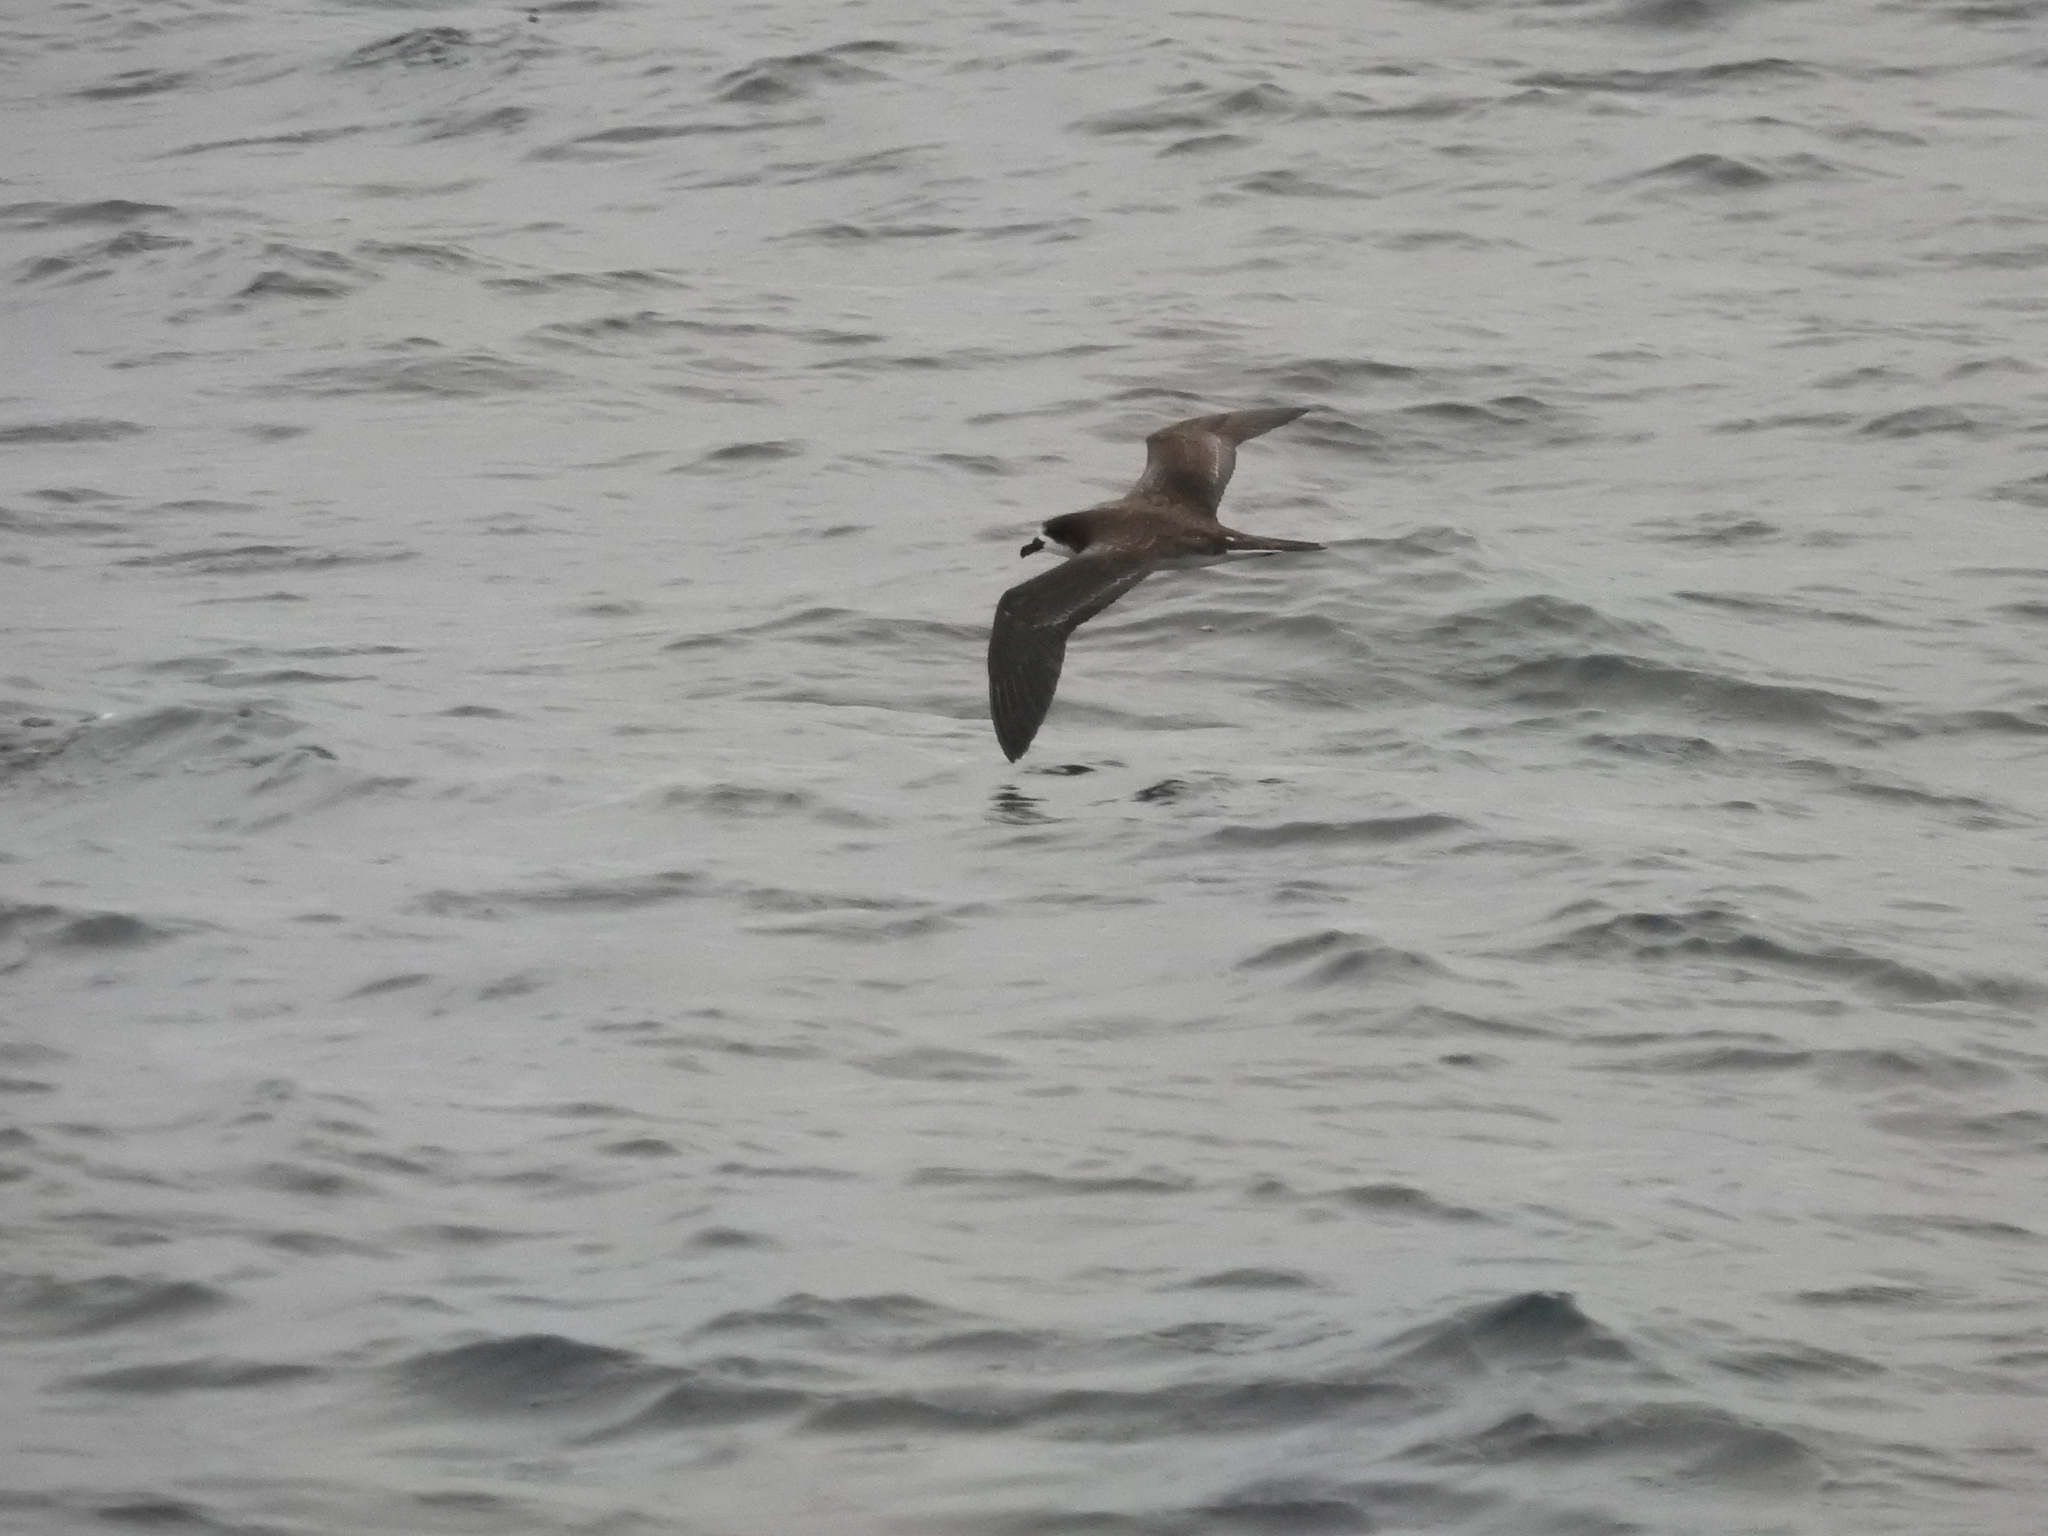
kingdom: Animalia
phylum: Chordata
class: Aves
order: Procellariiformes
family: Procellariidae
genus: Pterodroma
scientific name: Pterodroma phaeopygia
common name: Galapagos petrel
